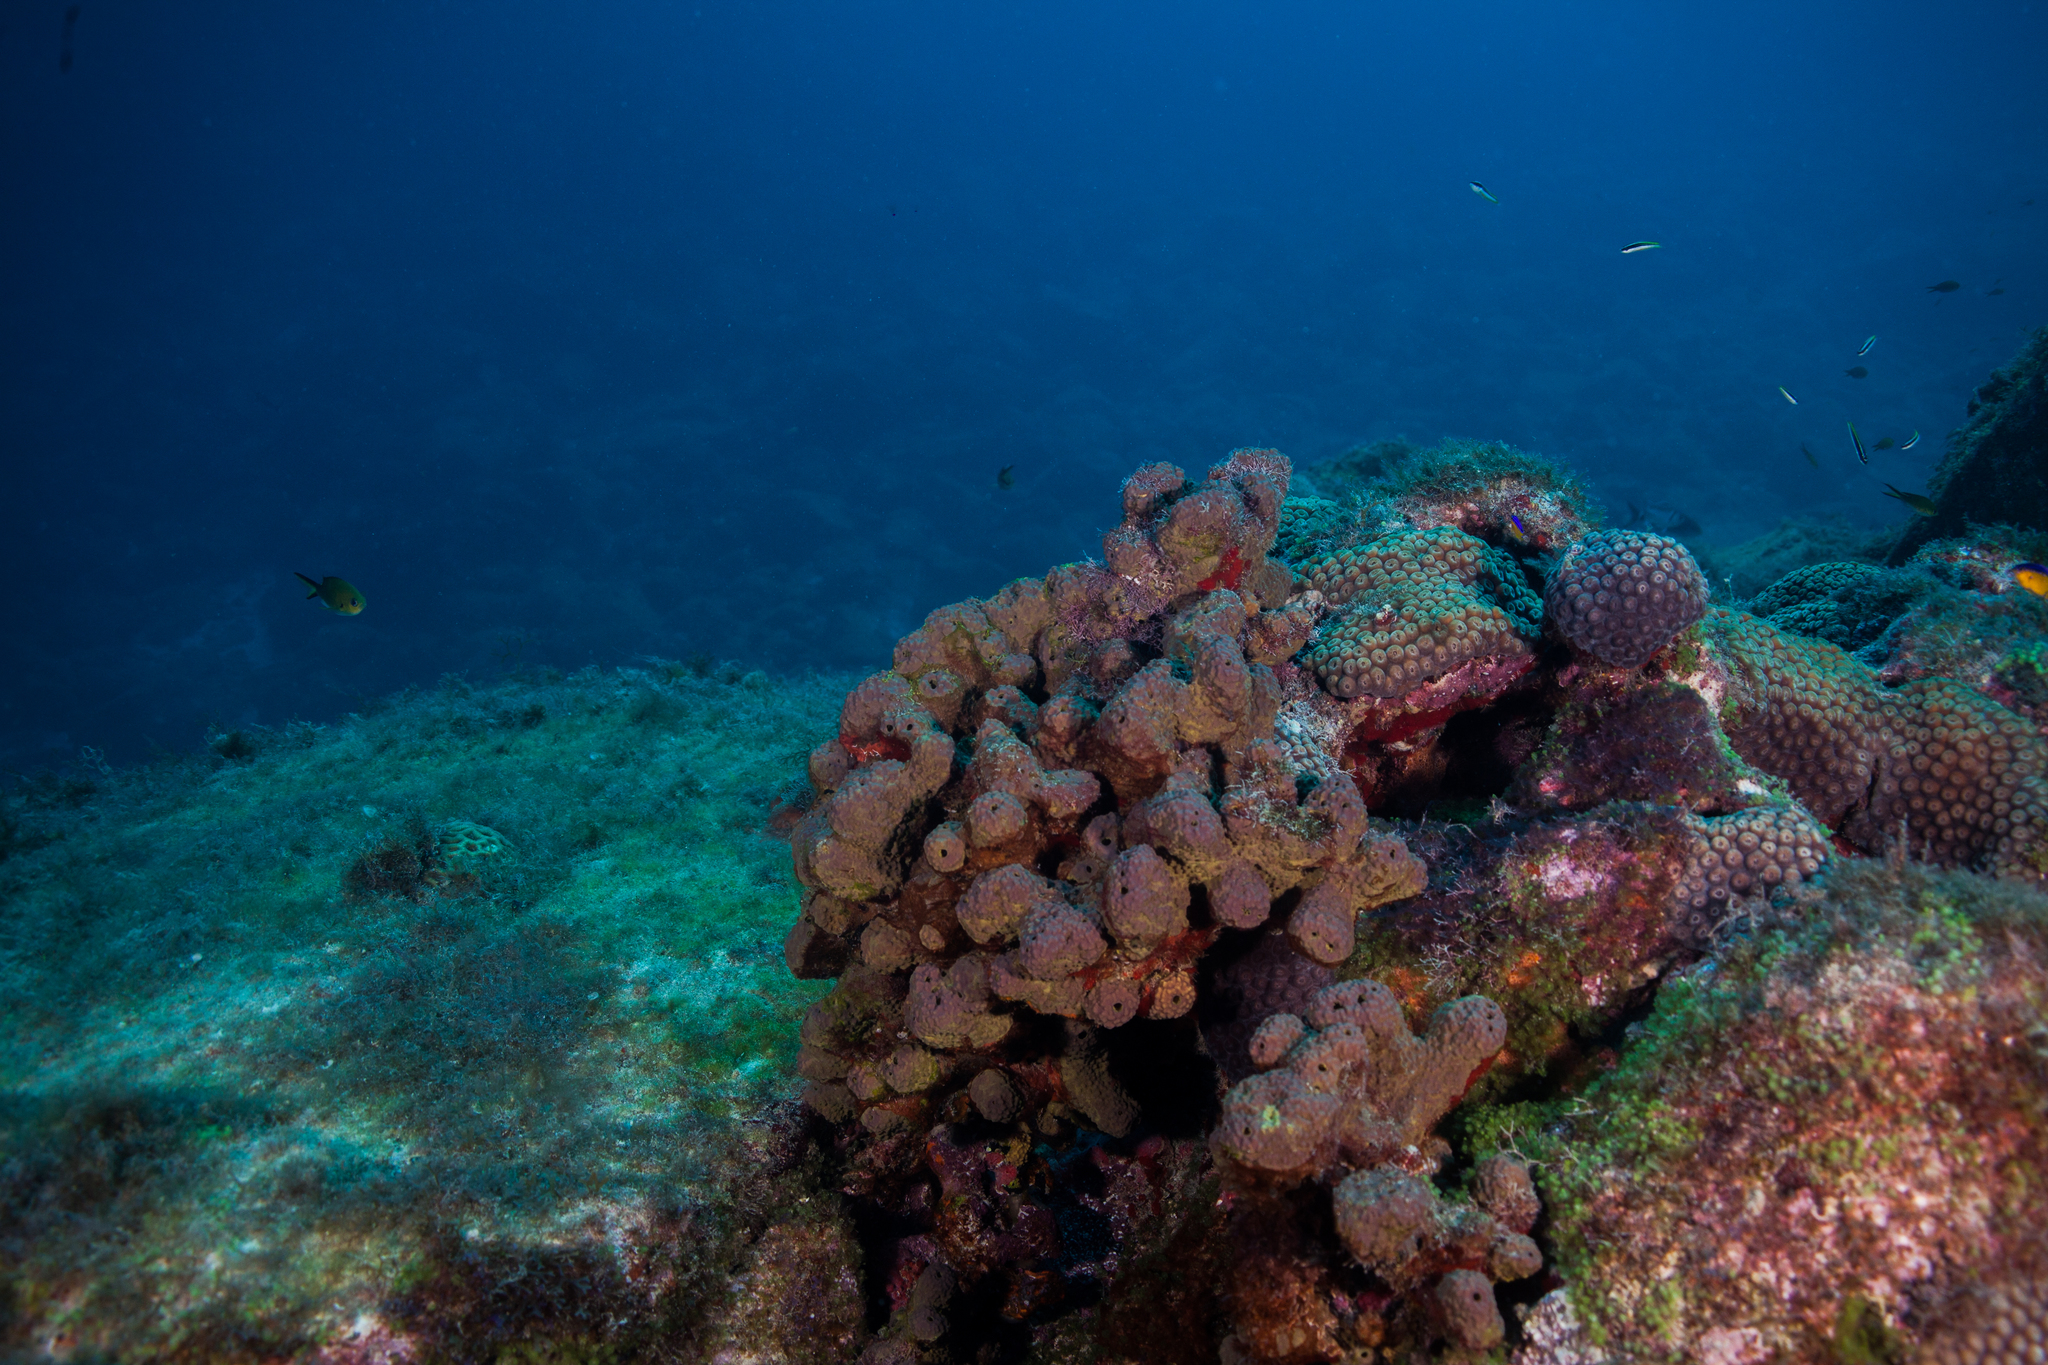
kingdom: Animalia
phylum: Porifera
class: Demospongiae
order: Verongiida
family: Aplysinidae
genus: Aiolochroia
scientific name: Aiolochroia crassa
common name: Branching tube sponge
